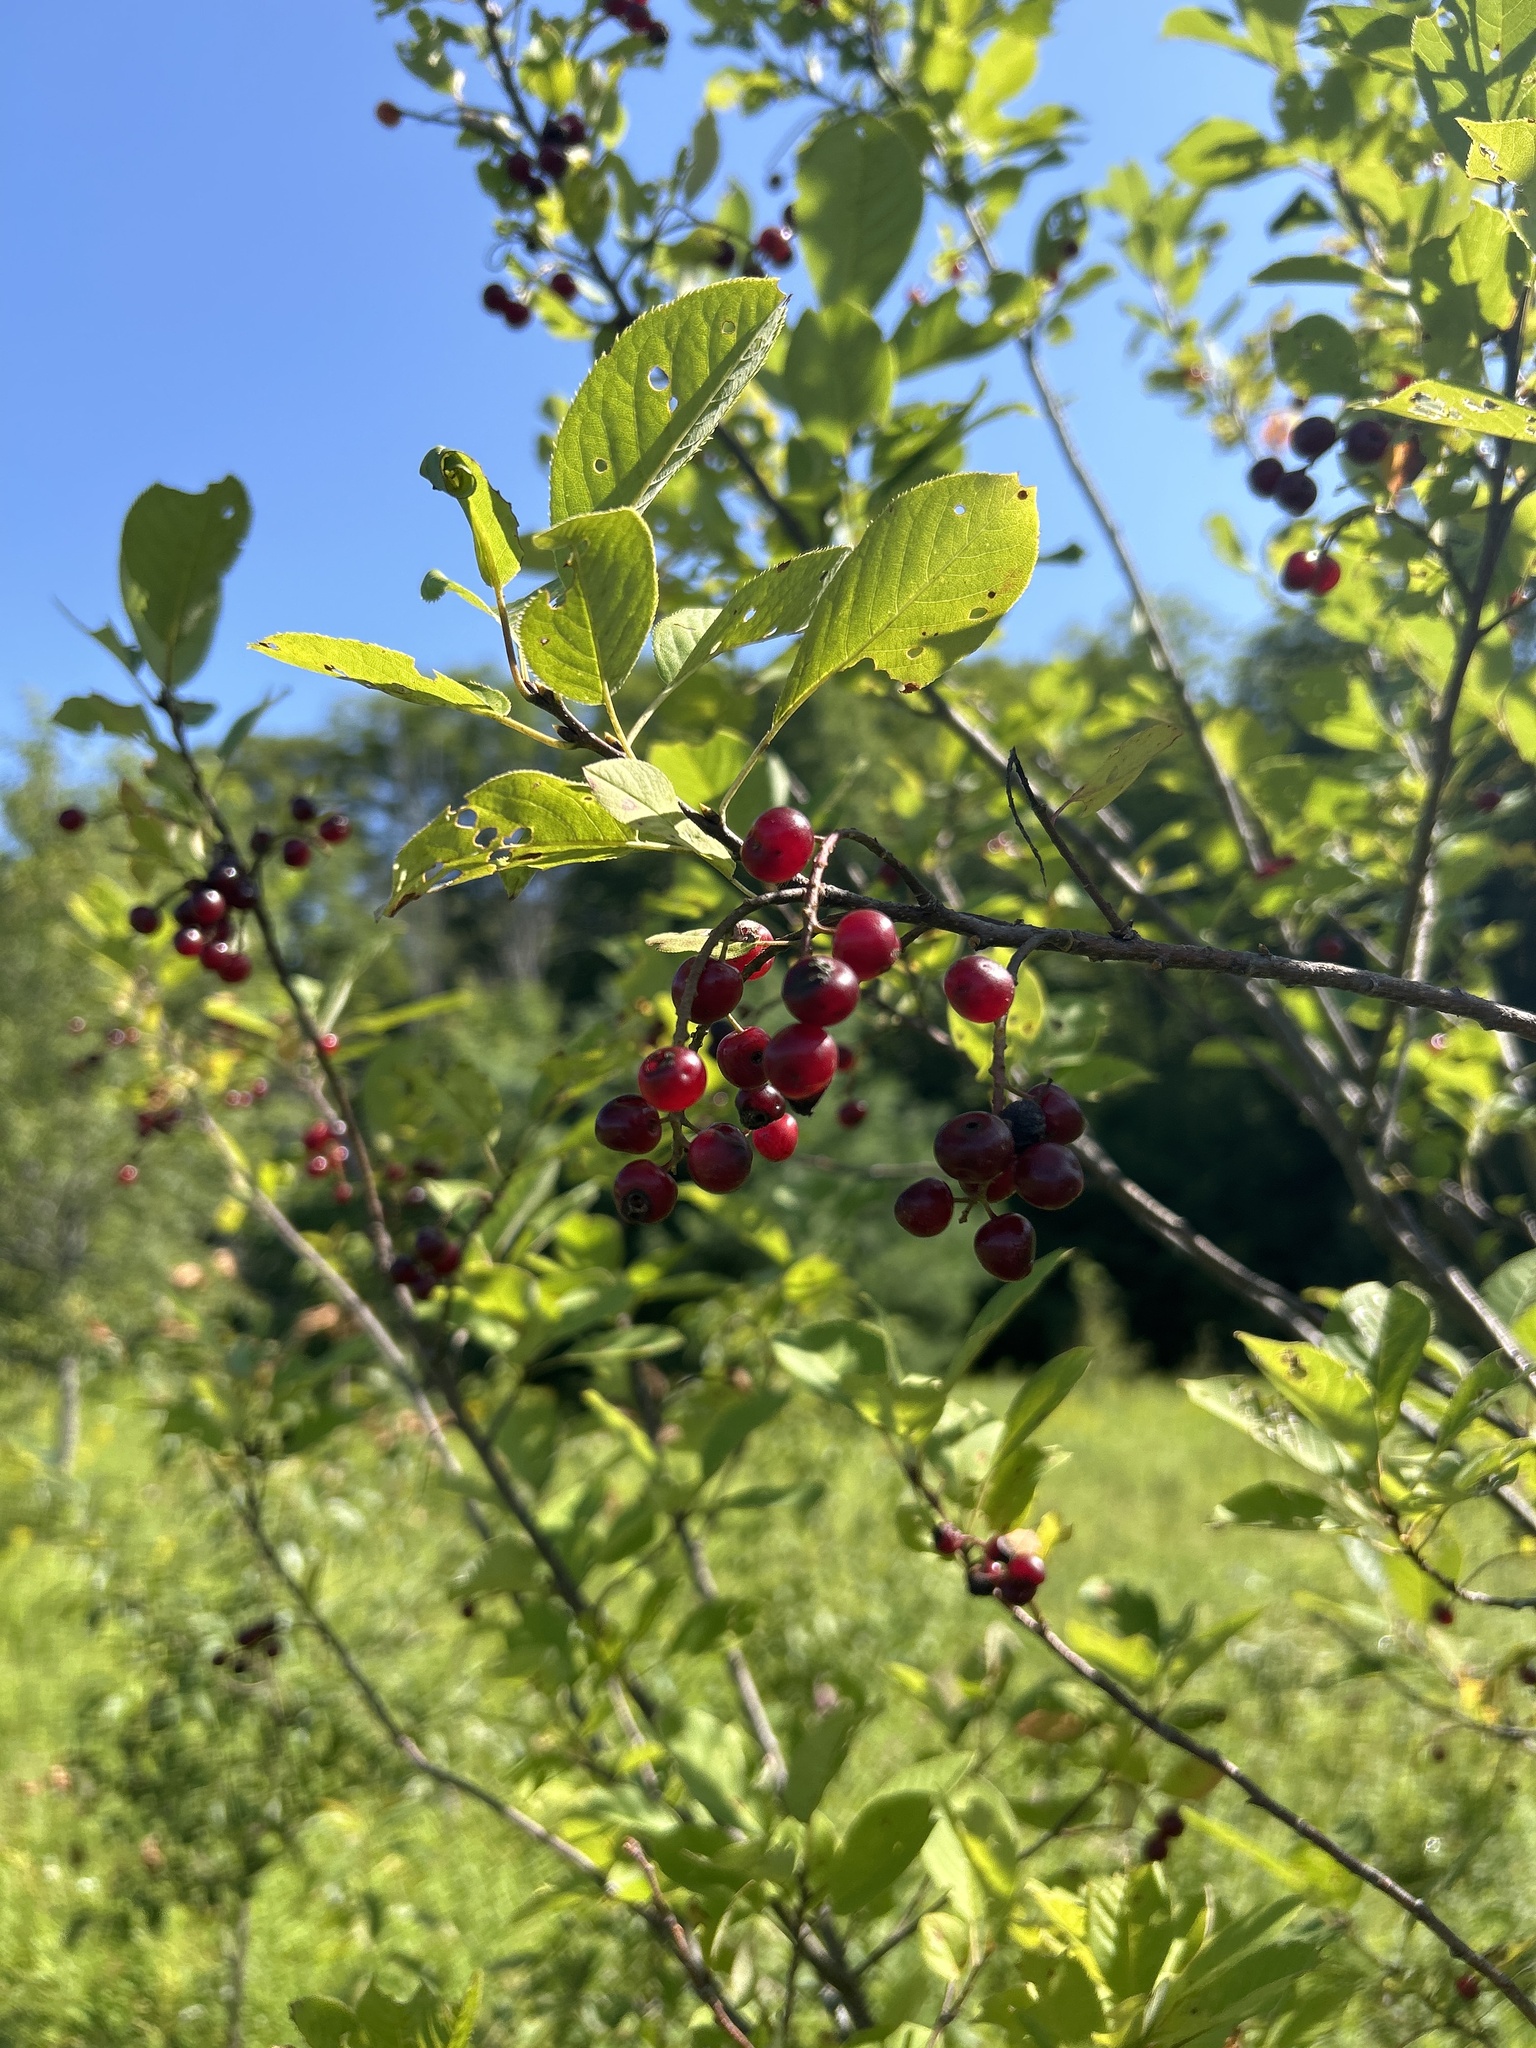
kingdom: Plantae
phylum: Tracheophyta
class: Magnoliopsida
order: Rosales
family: Rosaceae
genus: Prunus
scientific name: Prunus virginiana
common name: Chokecherry
